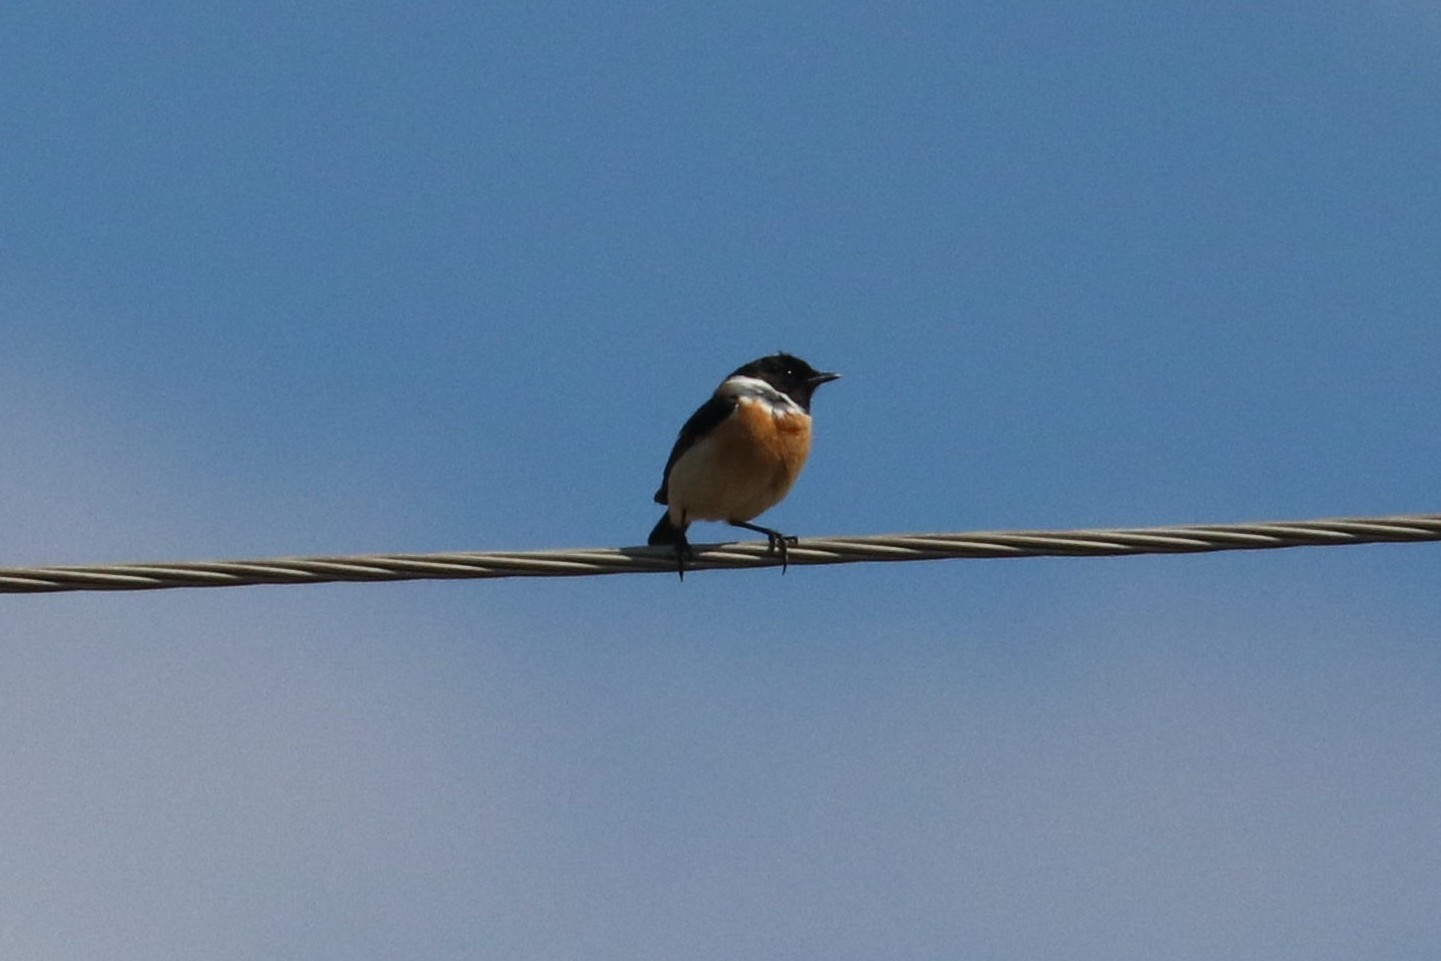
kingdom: Animalia
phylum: Chordata
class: Aves
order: Passeriformes
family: Muscicapidae
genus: Saxicola
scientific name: Saxicola maurus
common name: Siberian stonechat
